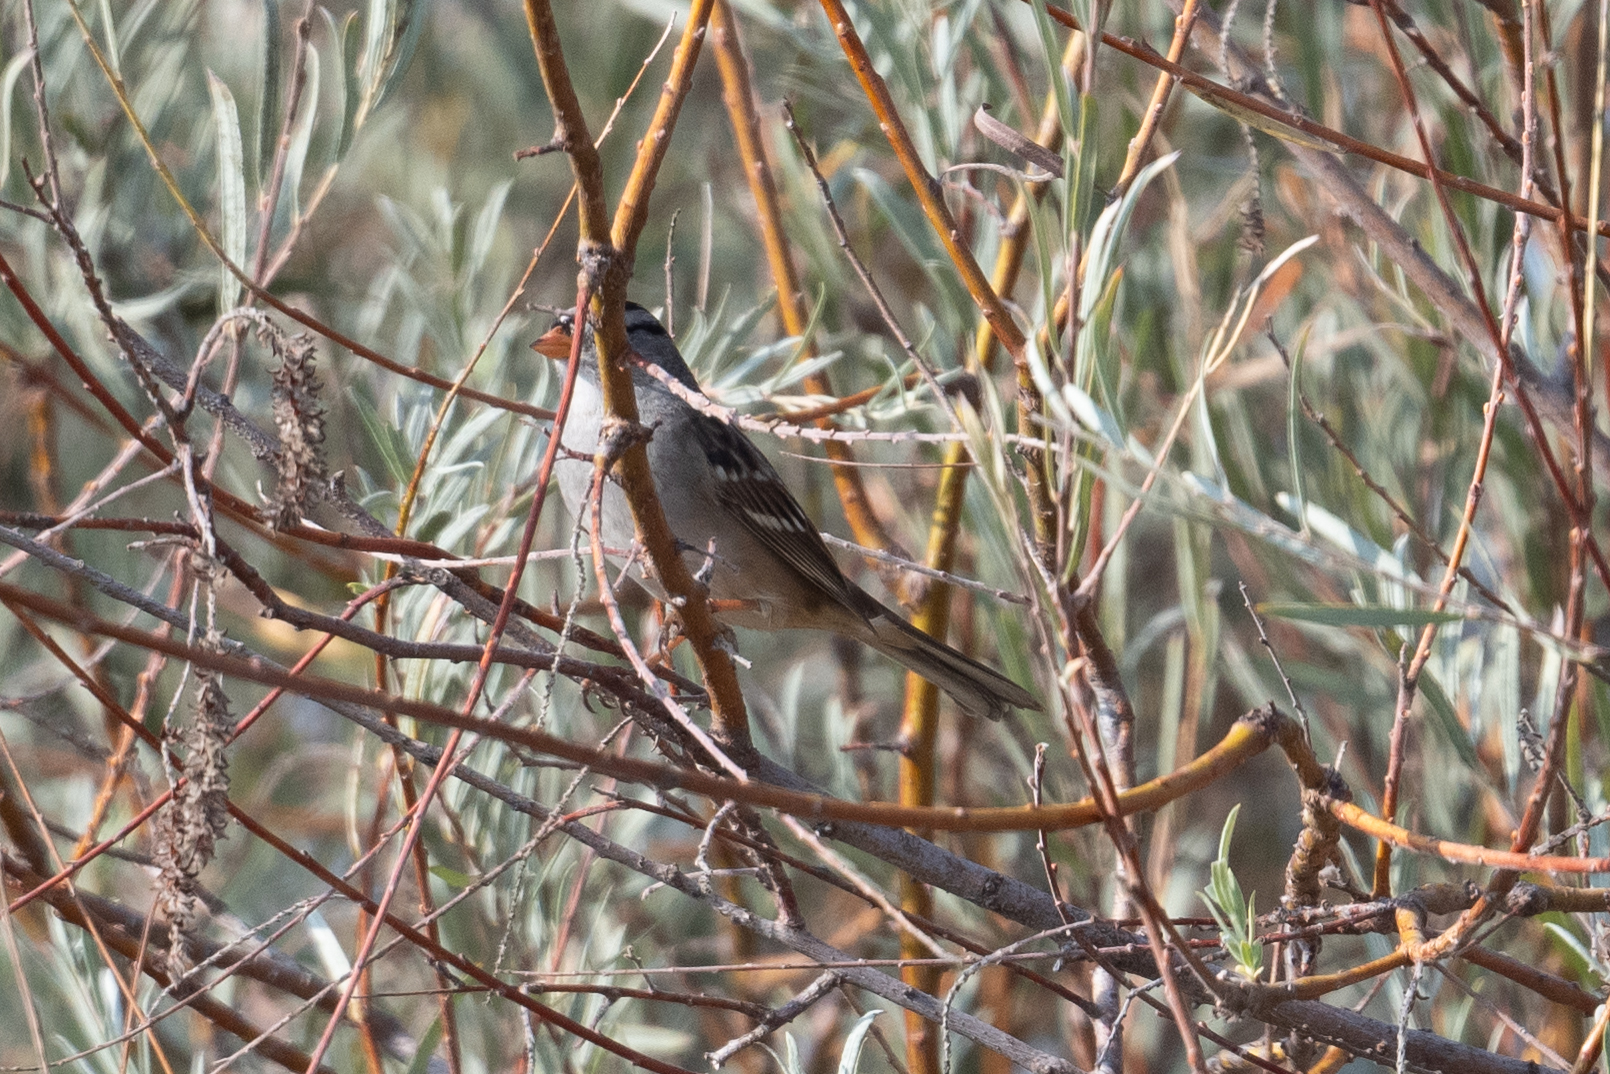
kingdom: Animalia
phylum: Chordata
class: Aves
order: Passeriformes
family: Passerellidae
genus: Zonotrichia
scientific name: Zonotrichia leucophrys
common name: White-crowned sparrow
